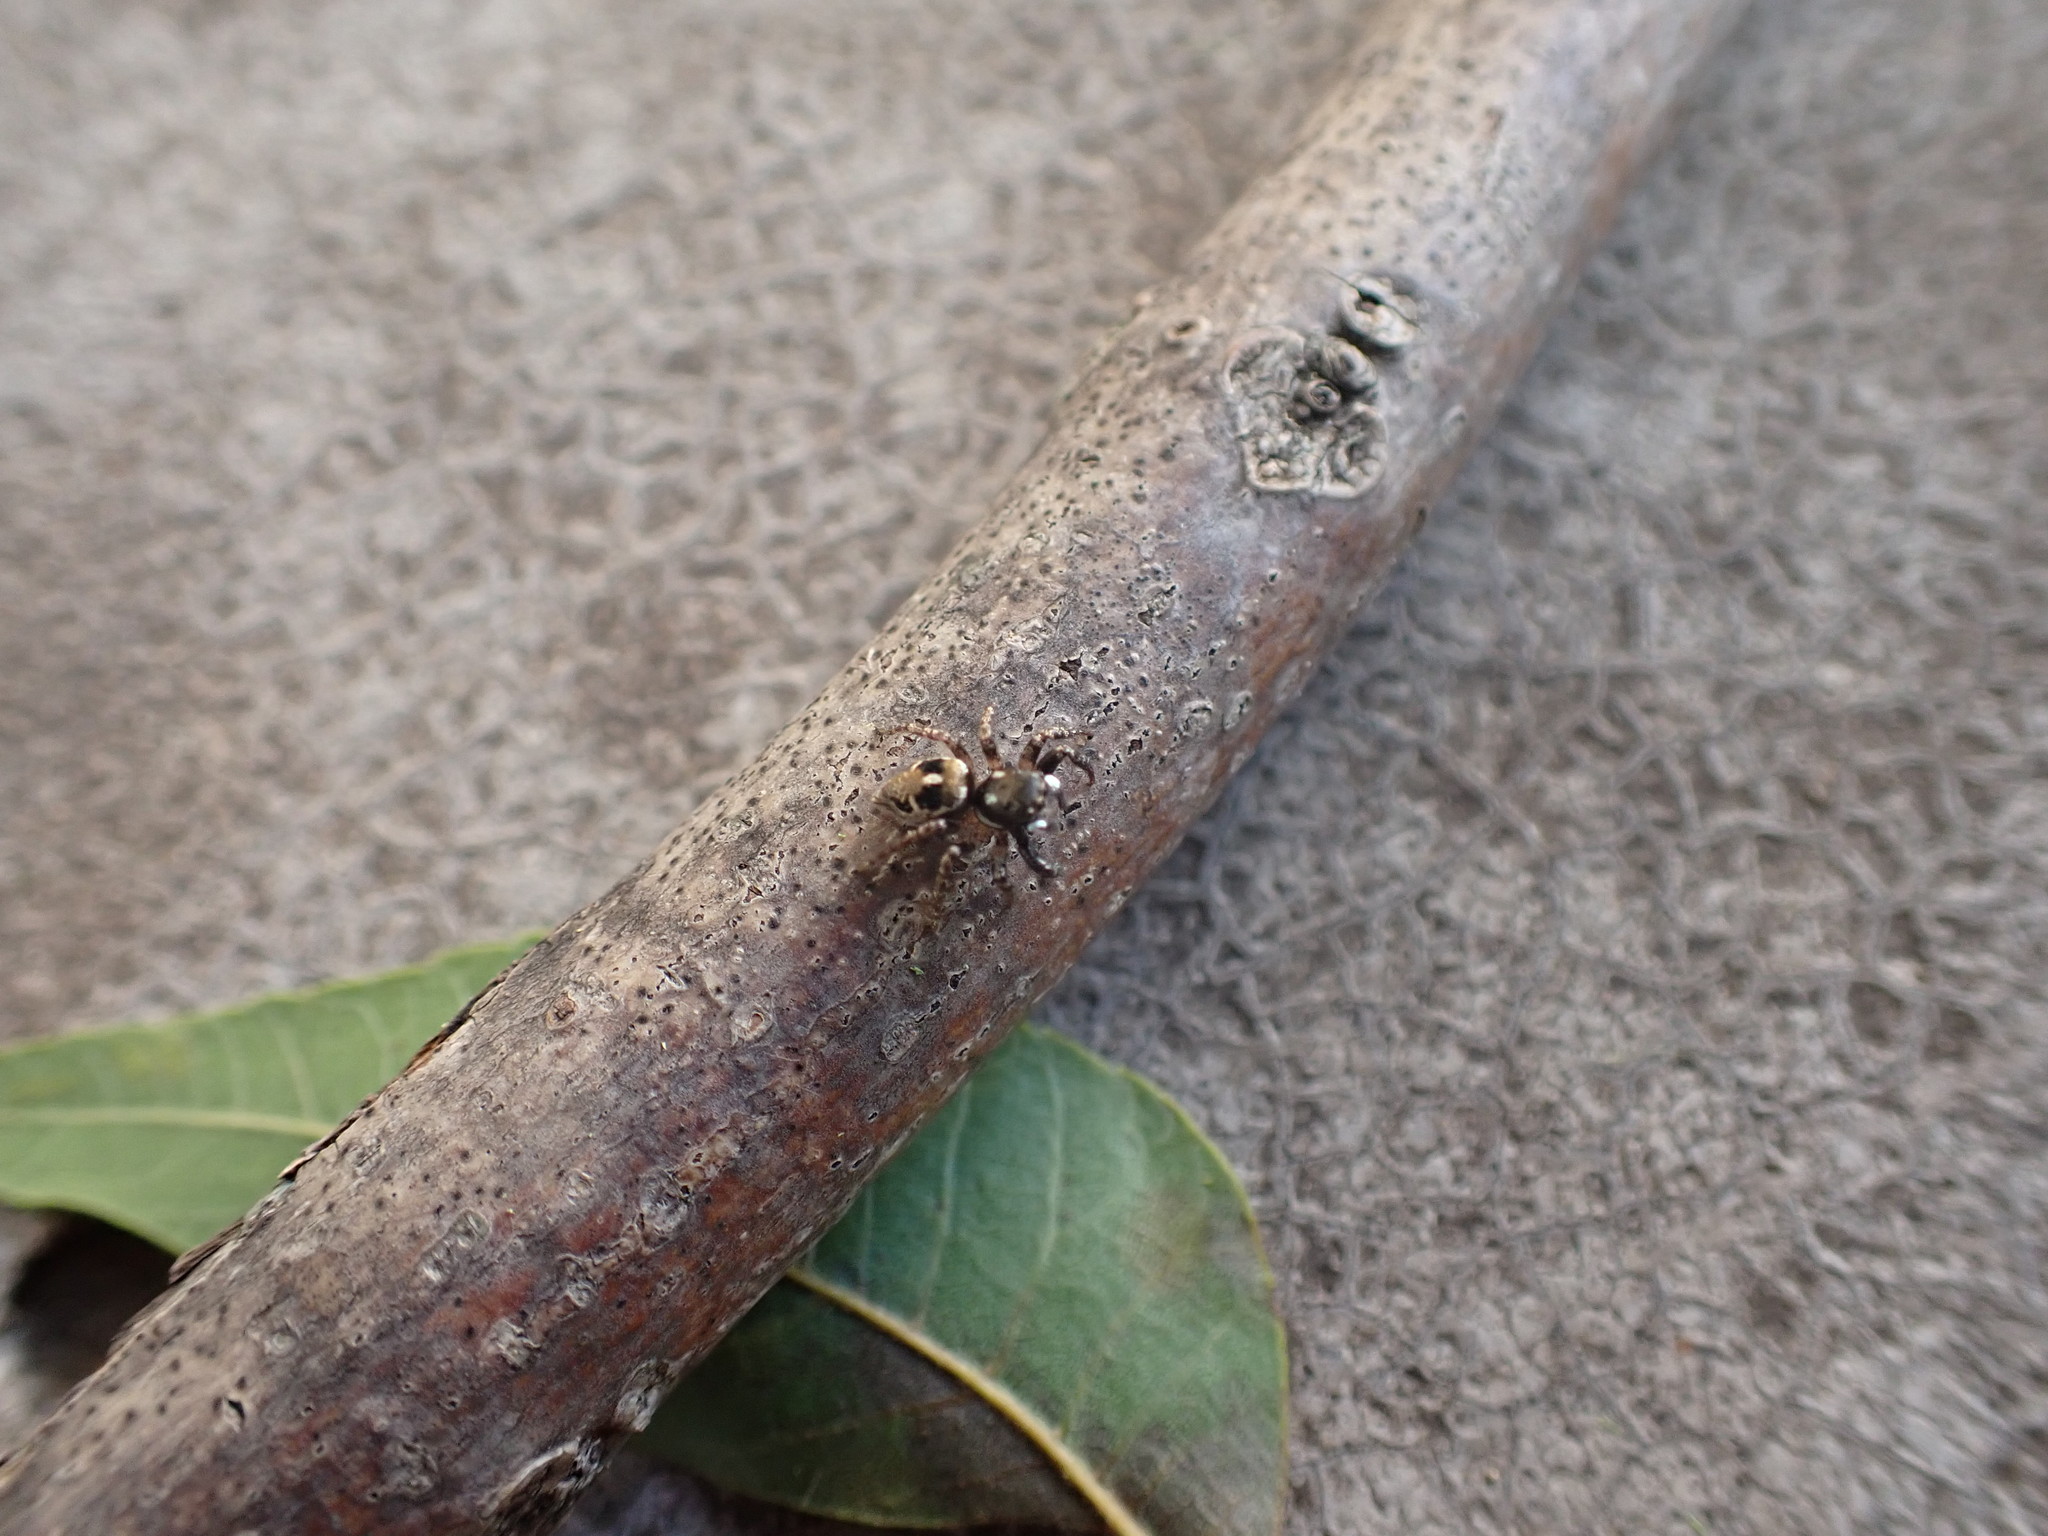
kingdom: Animalia
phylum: Arthropoda
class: Arachnida
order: Araneae
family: Salticidae
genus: Anasaitis
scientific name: Anasaitis canosa
